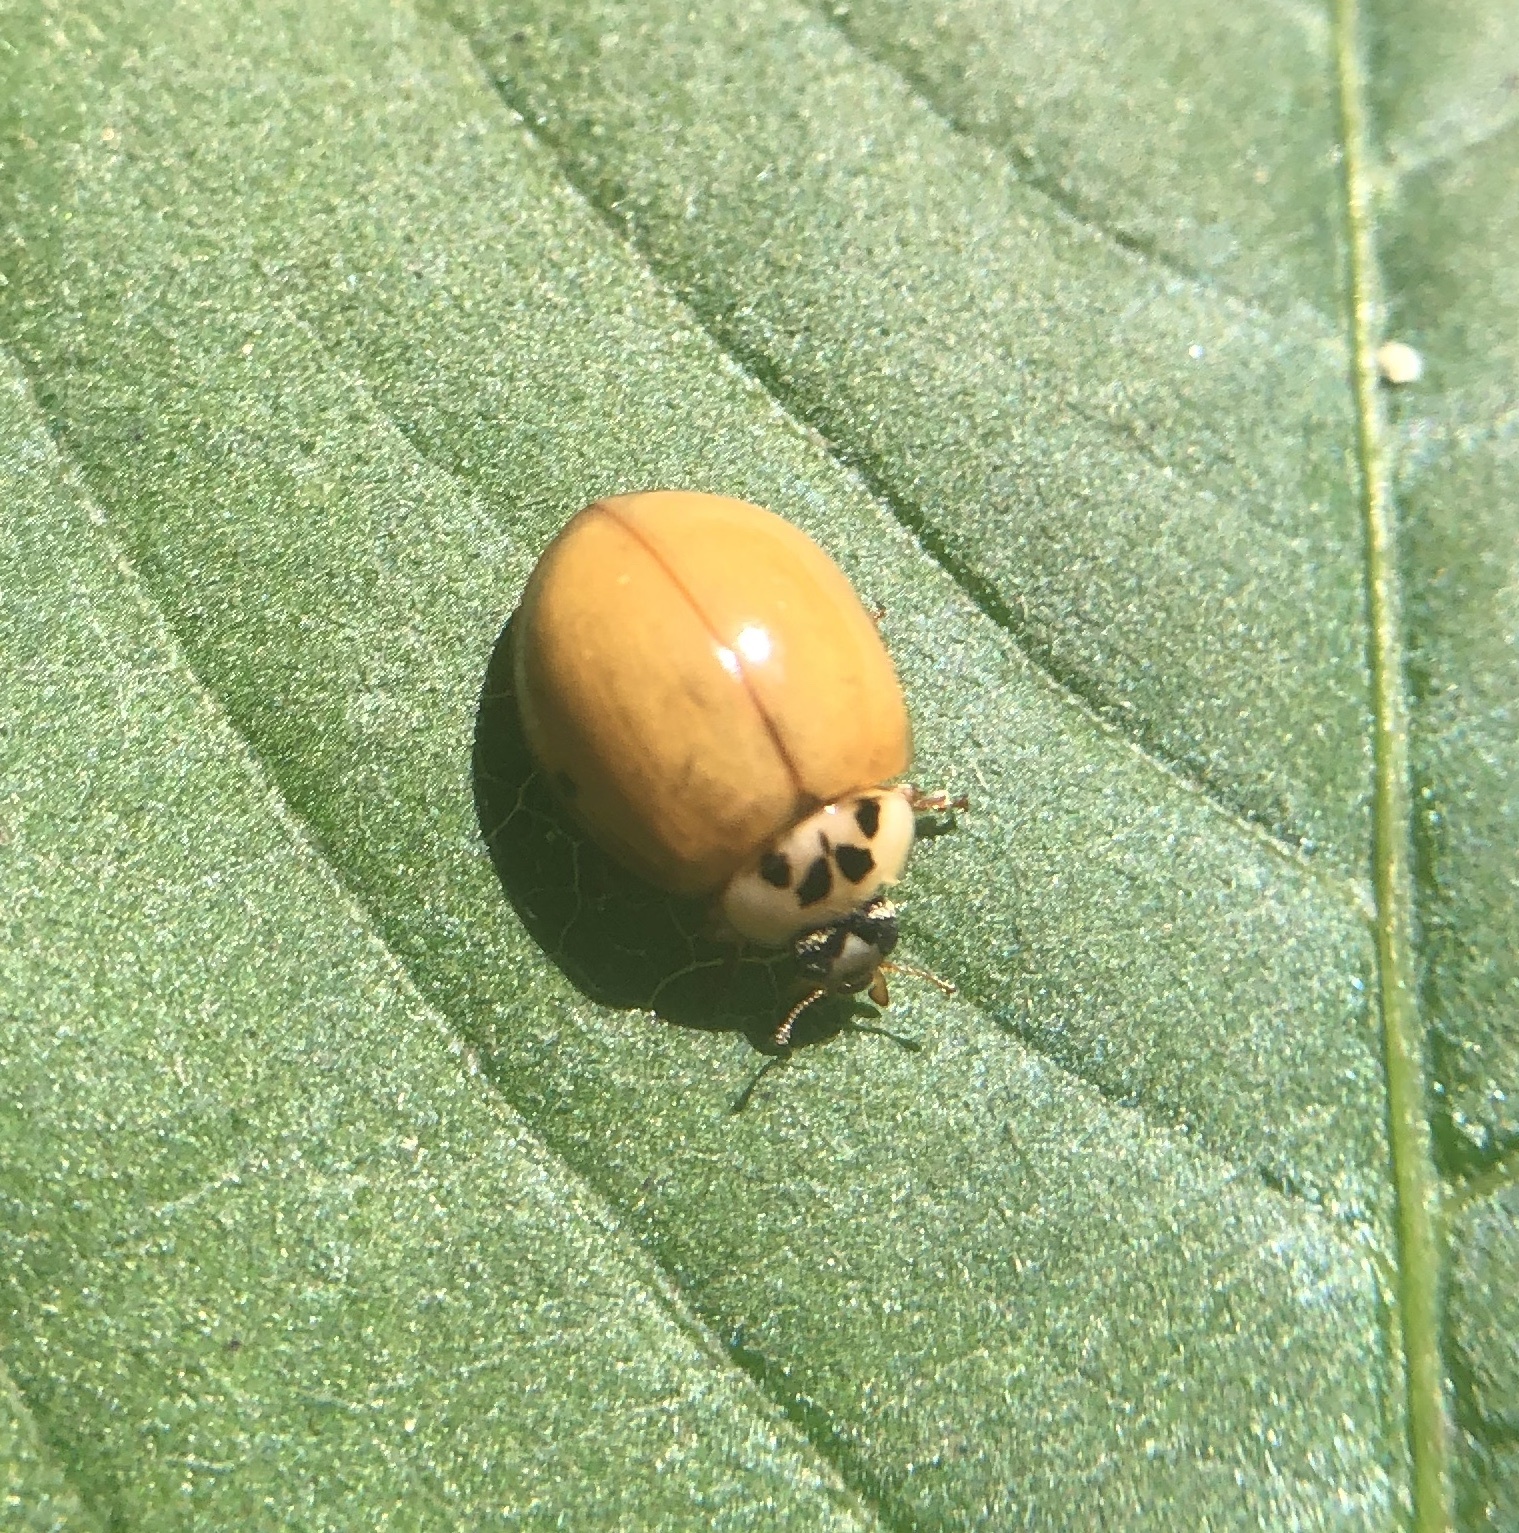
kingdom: Animalia
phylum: Arthropoda
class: Insecta
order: Coleoptera
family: Coccinellidae
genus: Harmonia
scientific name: Harmonia axyridis
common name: Harlequin ladybird
